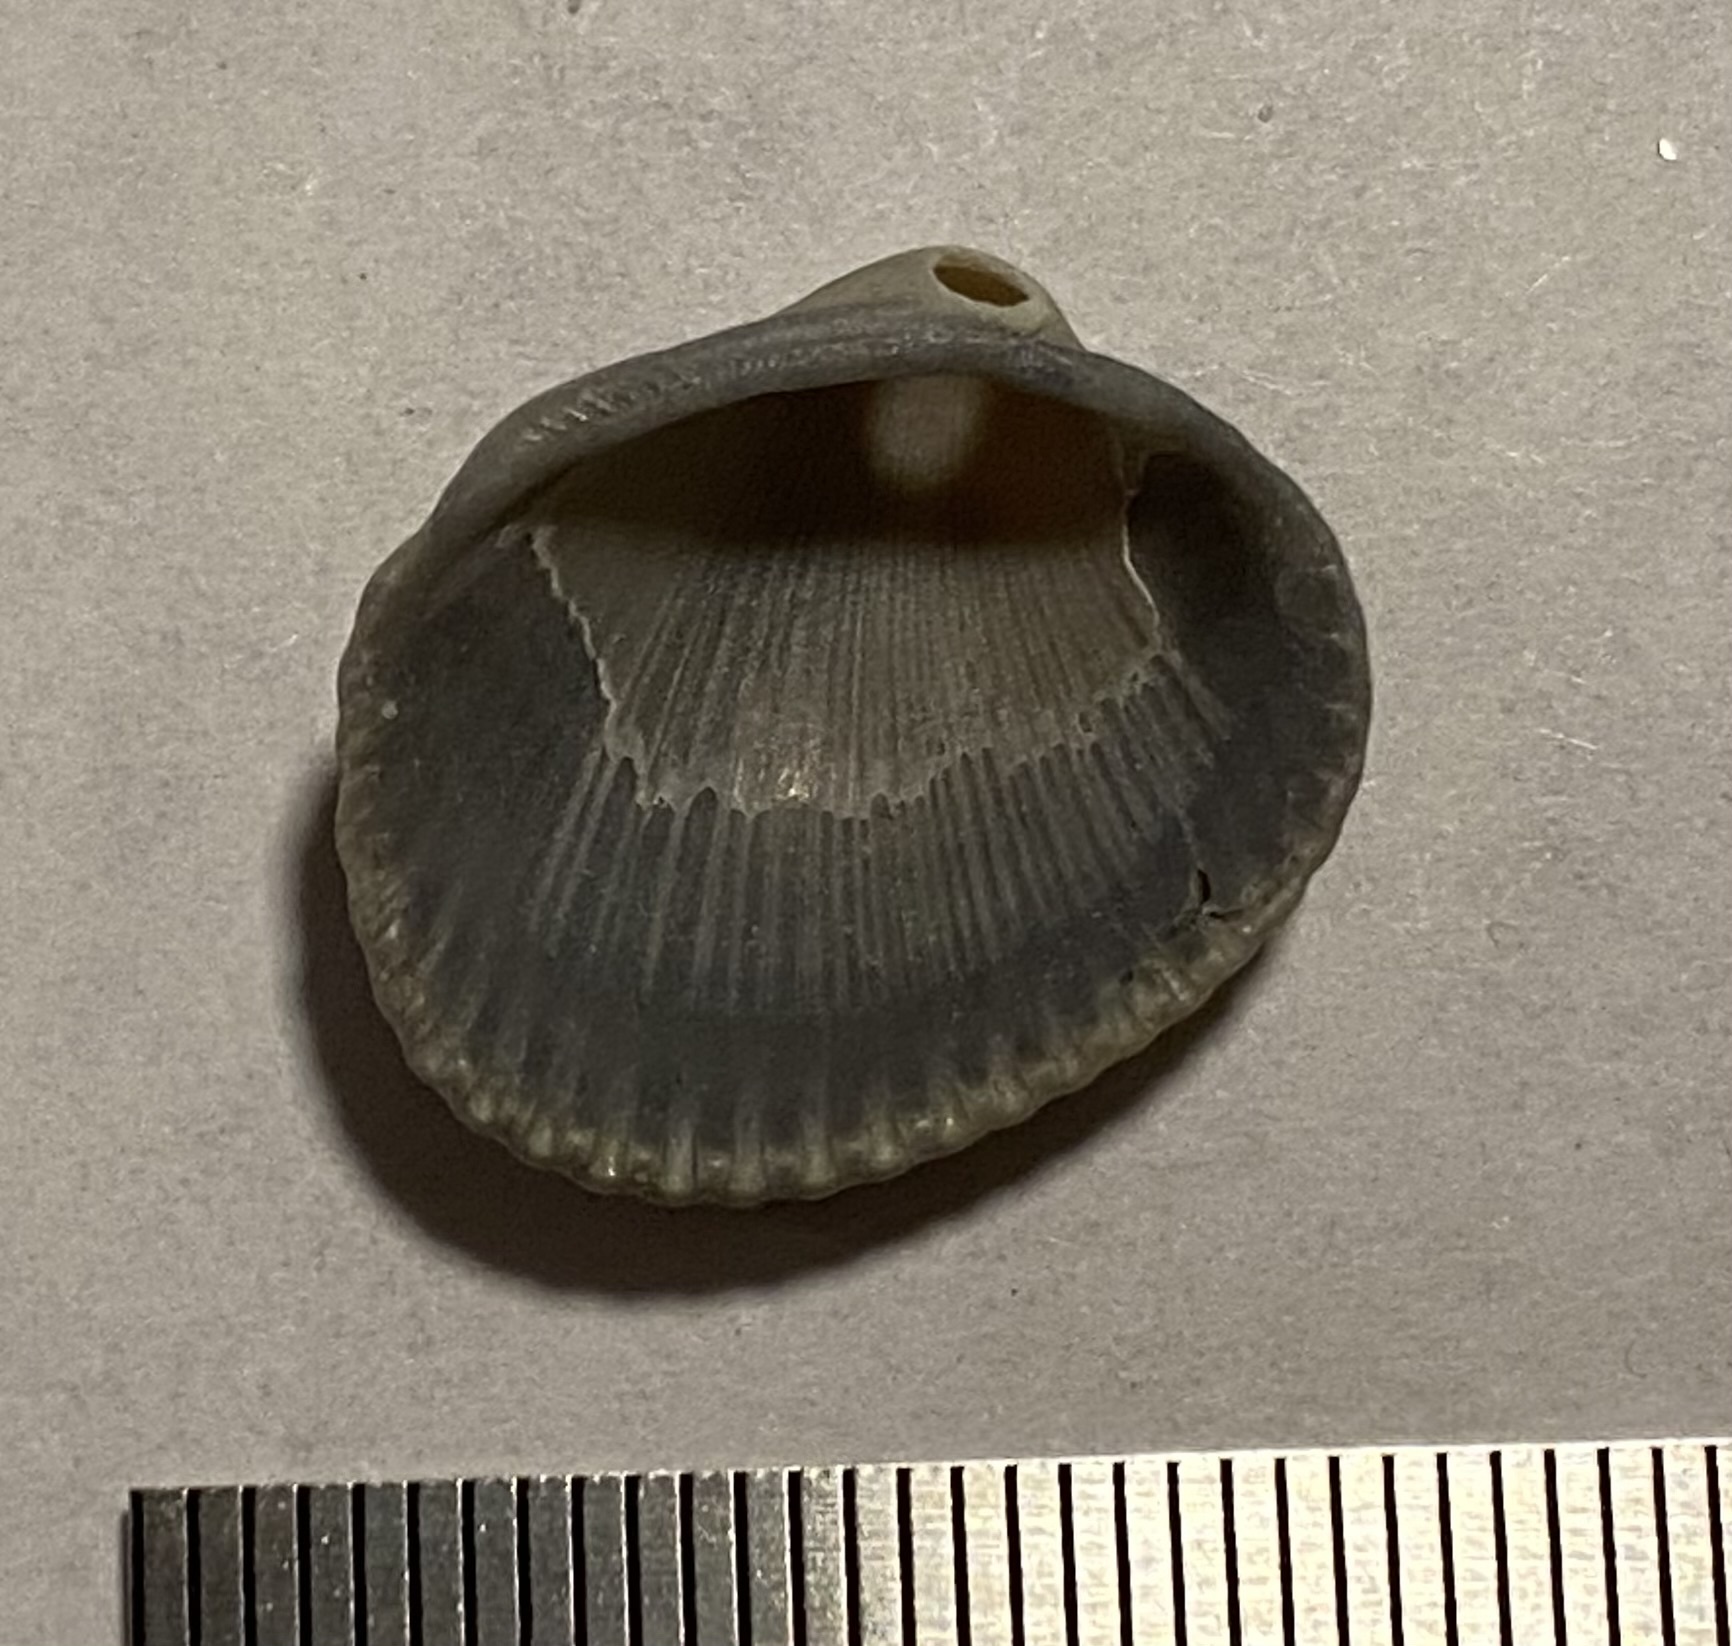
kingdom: Animalia
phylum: Mollusca
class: Bivalvia
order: Arcida
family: Arcidae
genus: Lunarca
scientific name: Lunarca ovalis
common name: Blood ark
